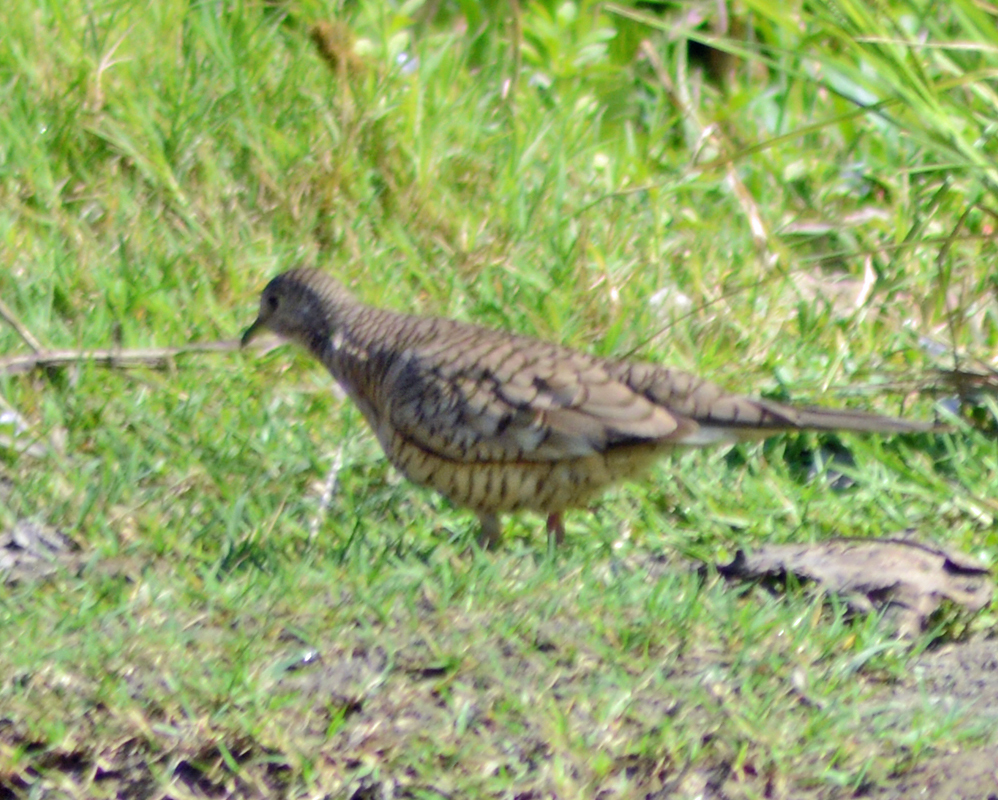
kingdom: Animalia
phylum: Chordata
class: Aves
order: Columbiformes
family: Columbidae
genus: Columbina
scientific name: Columbina inca
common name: Inca dove
